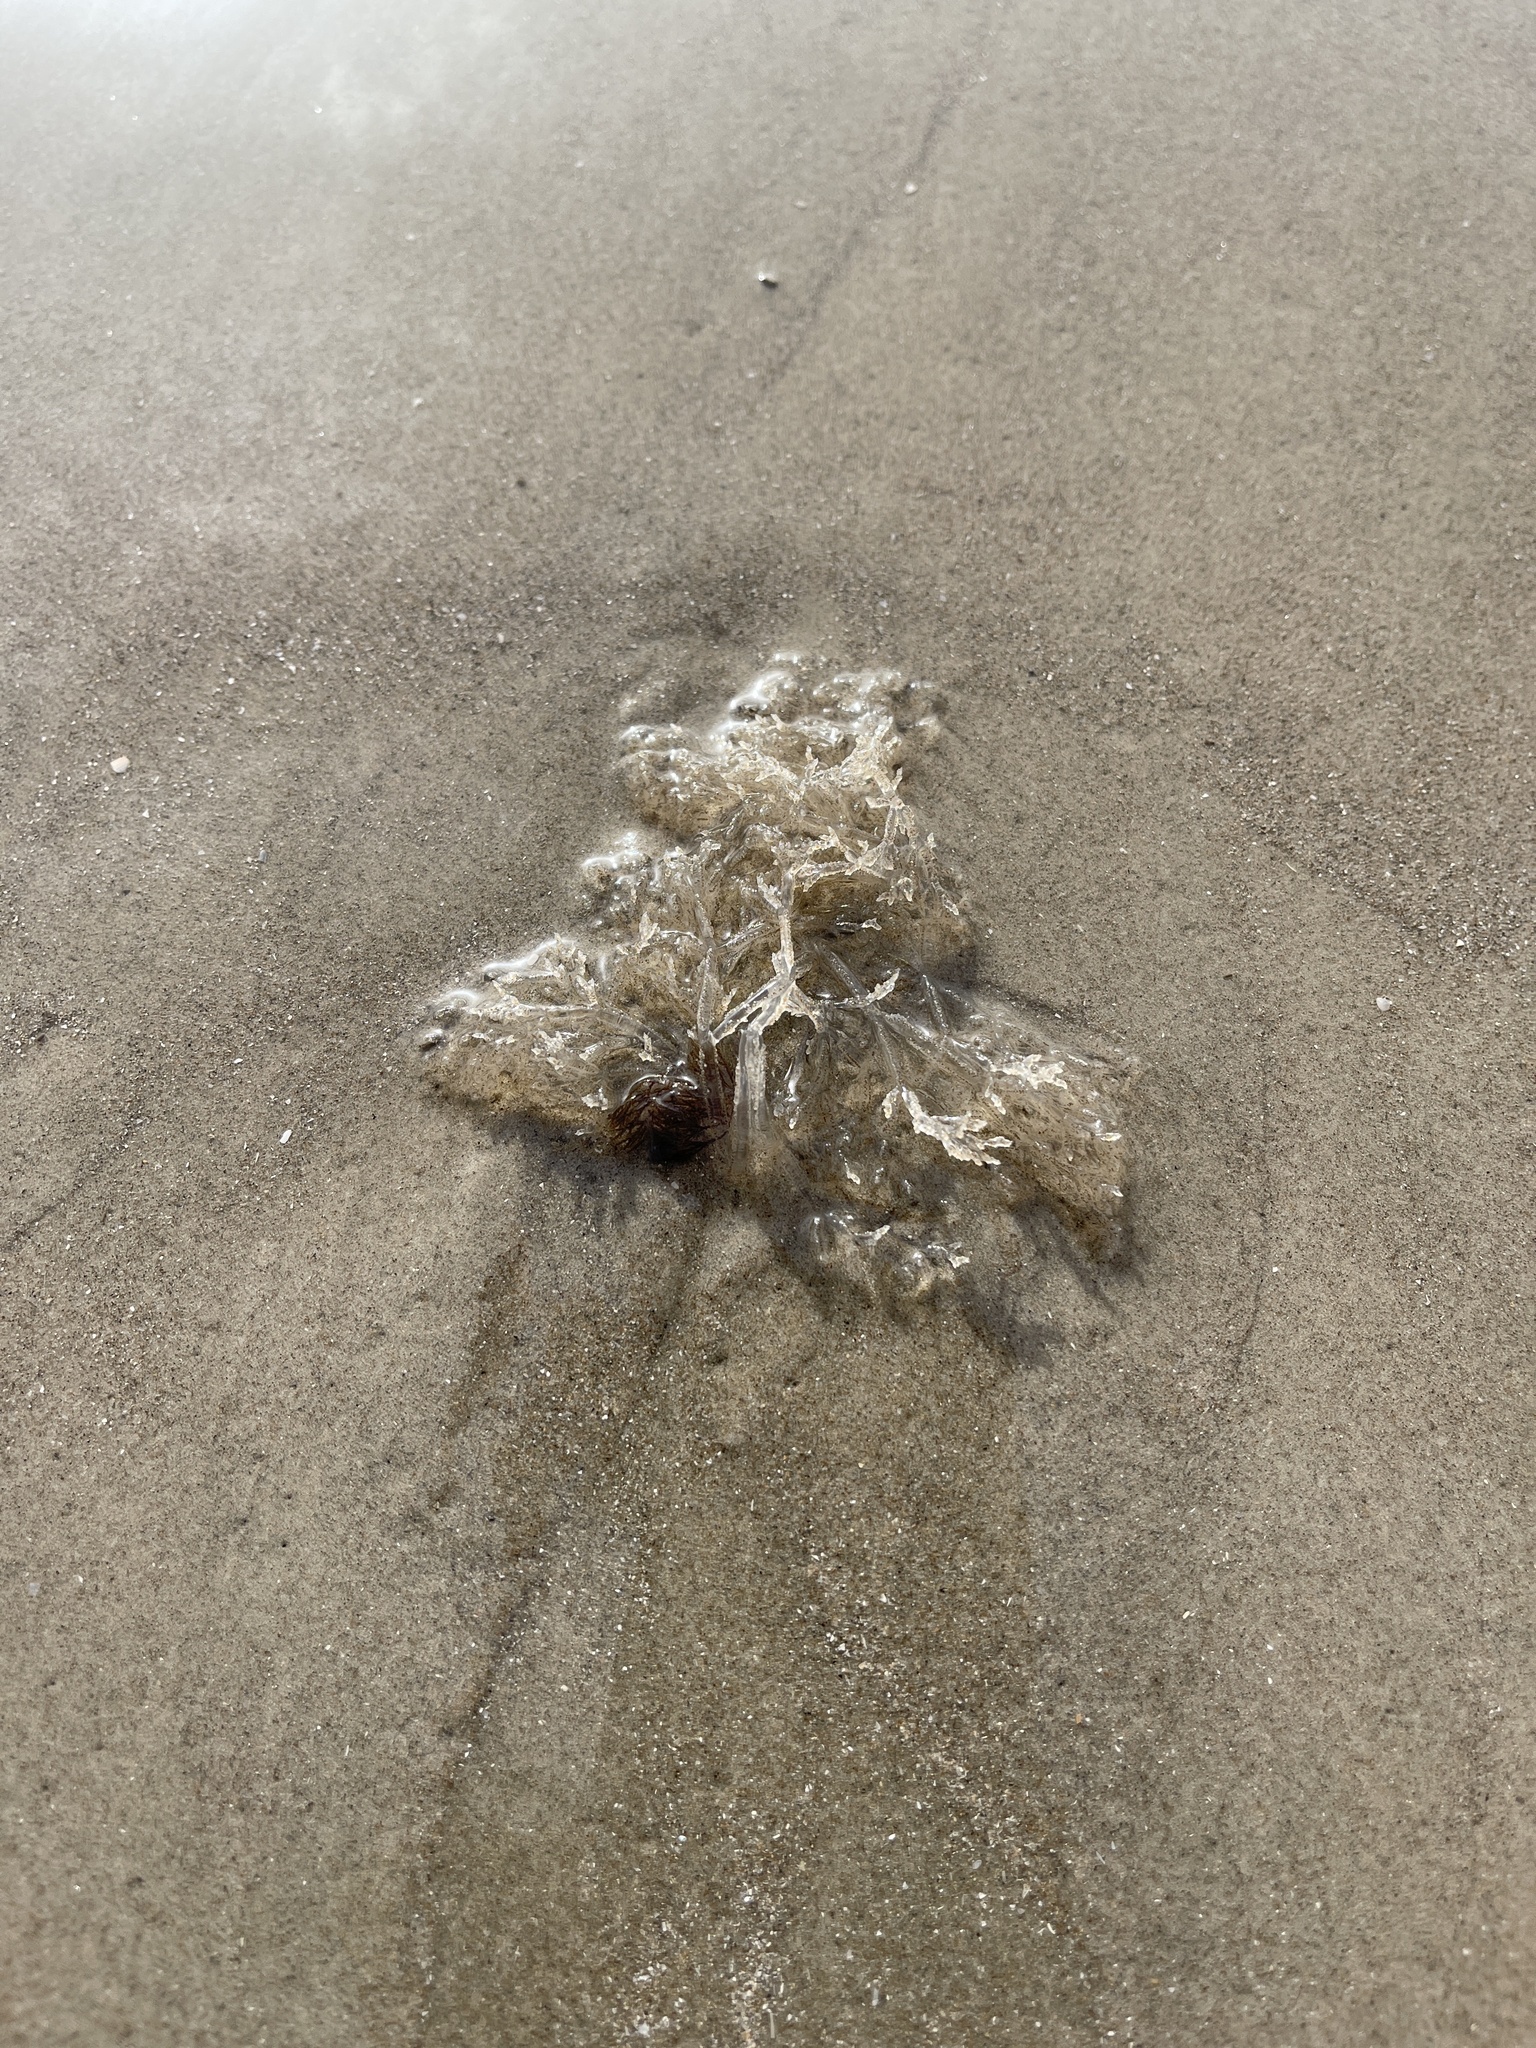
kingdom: Animalia
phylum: Bryozoa
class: Gymnolaemata
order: Ctenostomatida
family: Vesiculariidae
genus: Amathia
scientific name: Amathia verticillata
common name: Whorled zoobotryon
